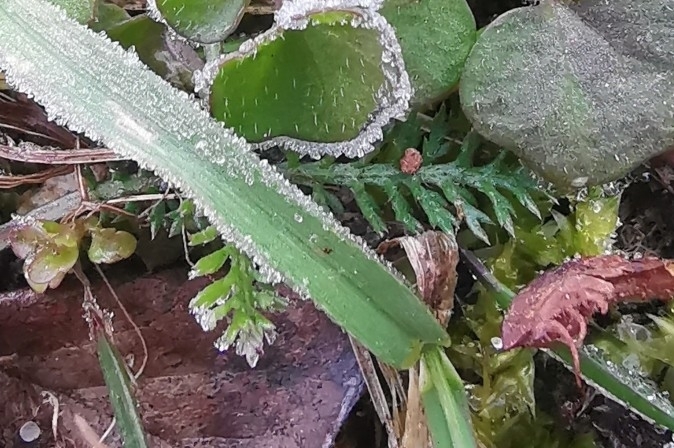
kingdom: Plantae
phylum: Tracheophyta
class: Magnoliopsida
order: Asterales
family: Asteraceae
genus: Achillea
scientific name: Achillea millefolium
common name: Yarrow
